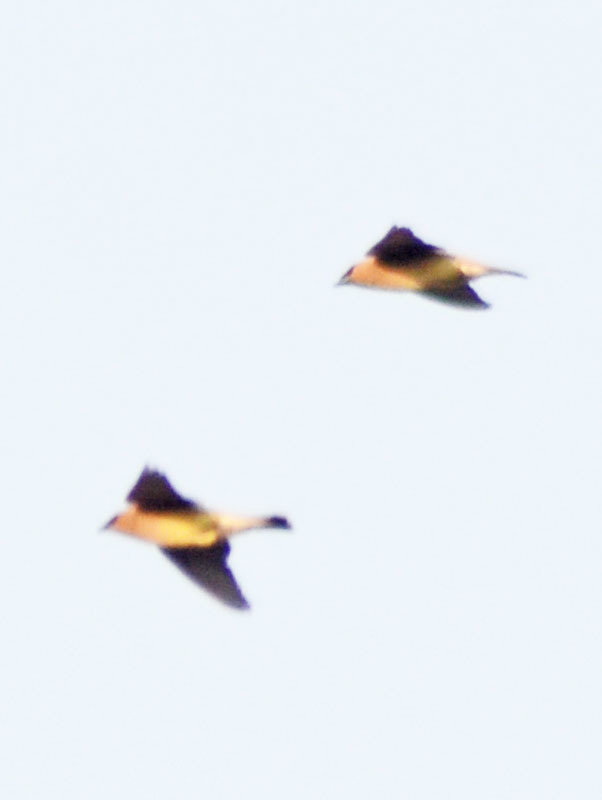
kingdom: Animalia
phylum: Chordata
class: Aves
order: Passeriformes
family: Bombycillidae
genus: Bombycilla
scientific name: Bombycilla cedrorum
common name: Cedar waxwing
